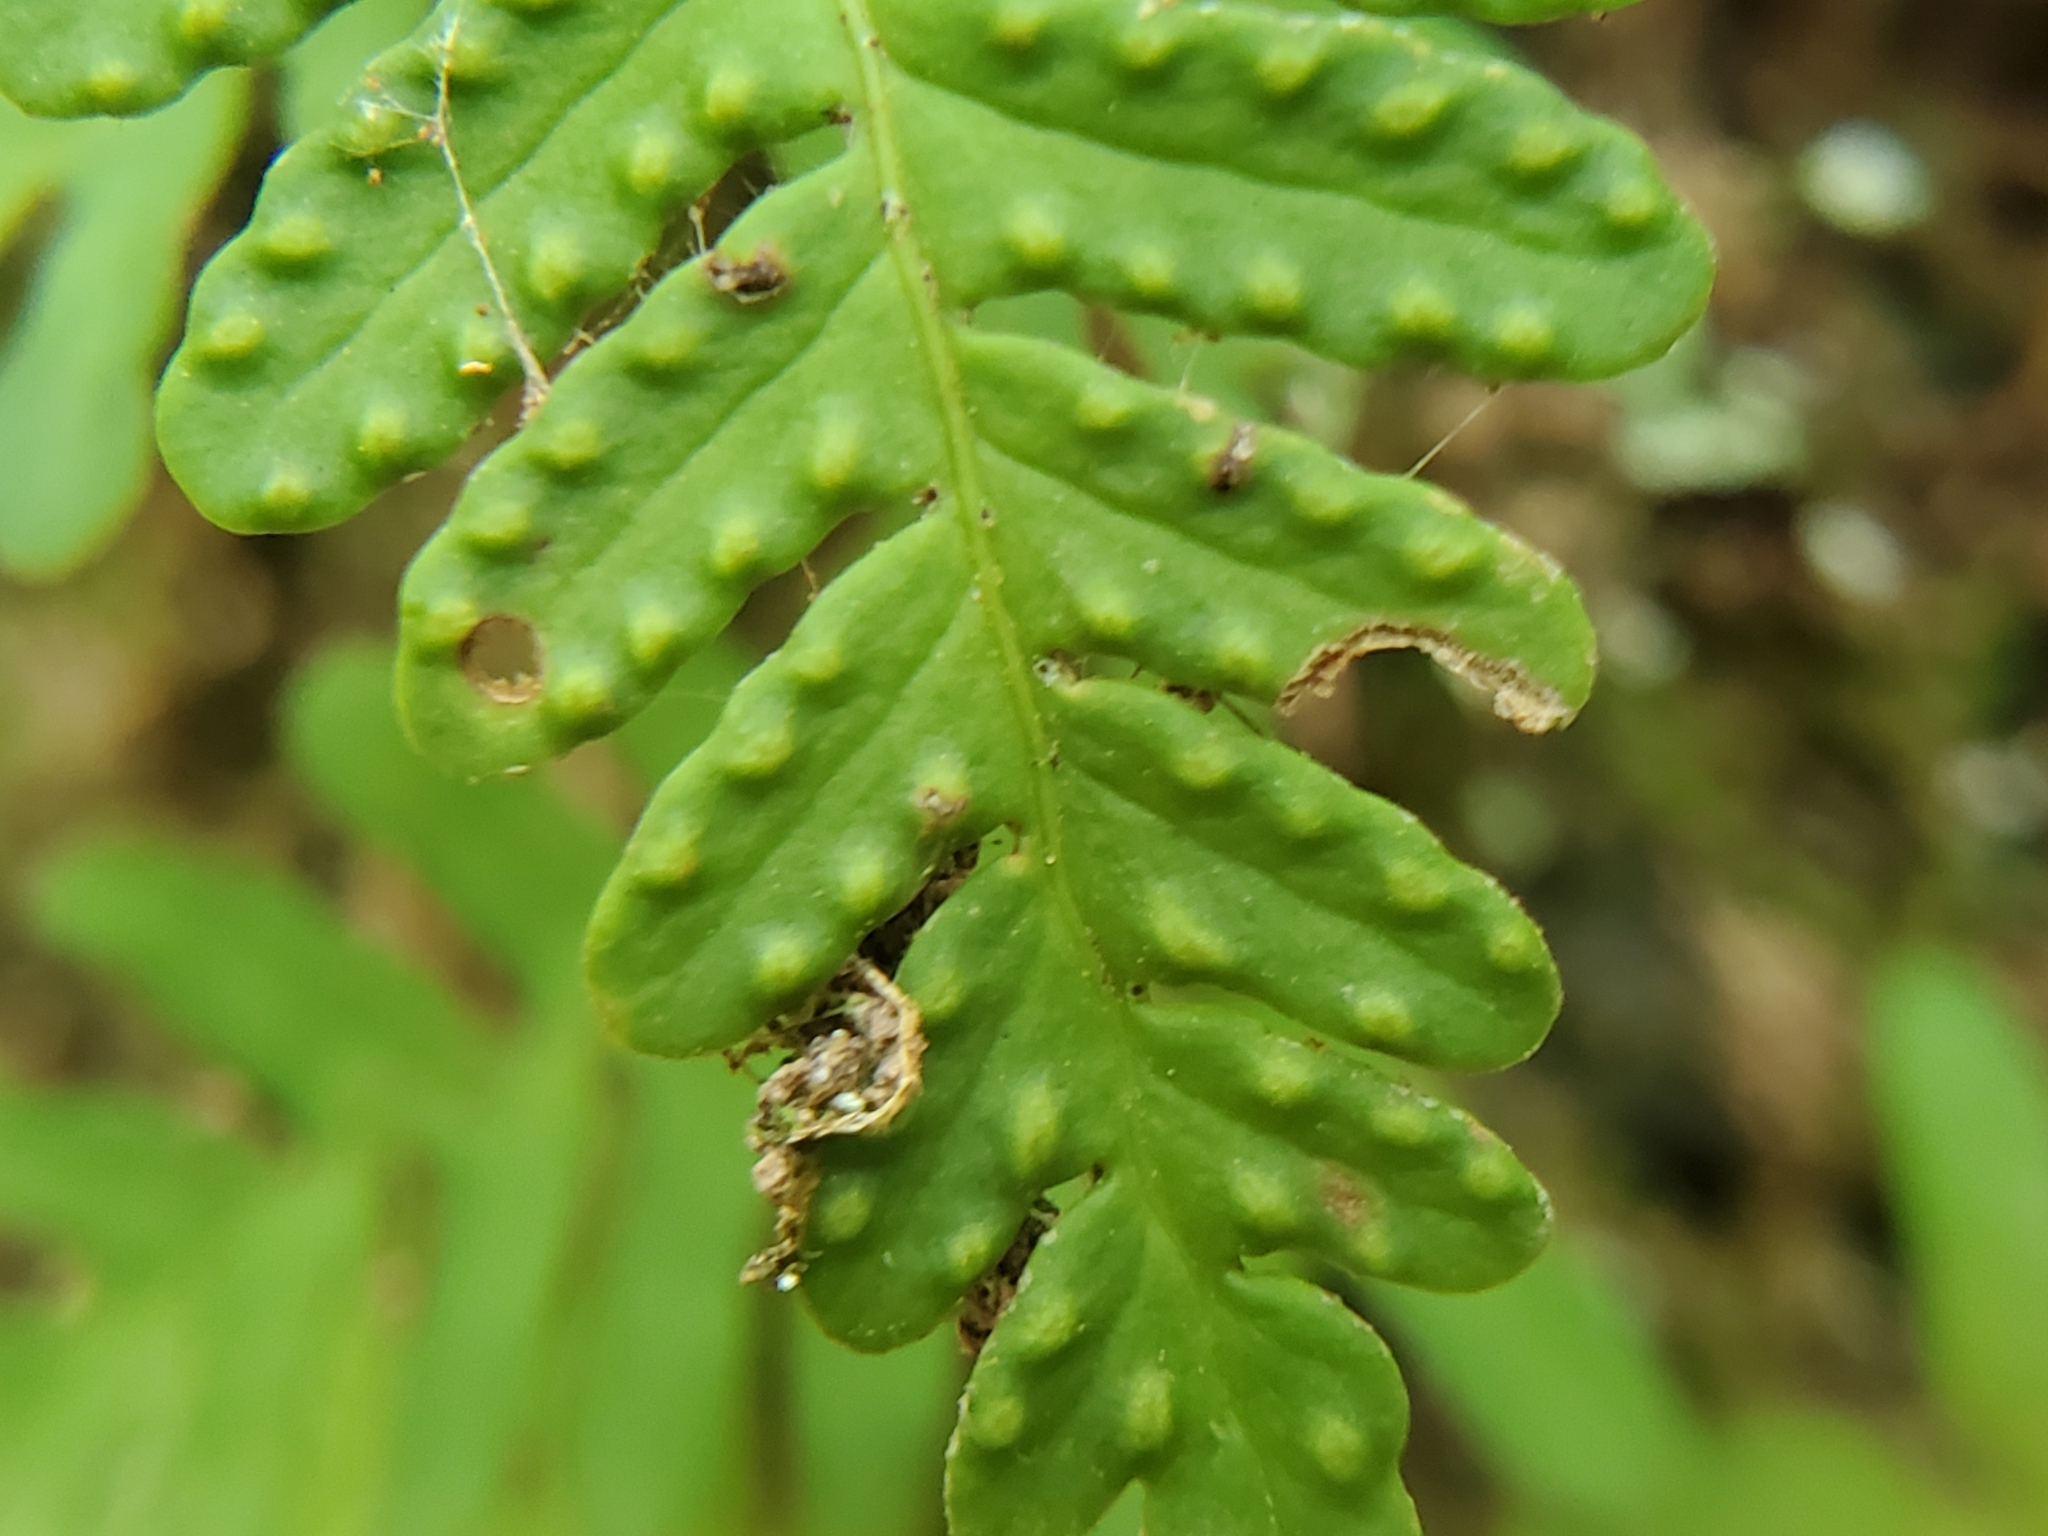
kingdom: Plantae
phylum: Tracheophyta
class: Polypodiopsida
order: Polypodiales
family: Polypodiaceae
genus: Pleopeltis
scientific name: Pleopeltis michauxiana
